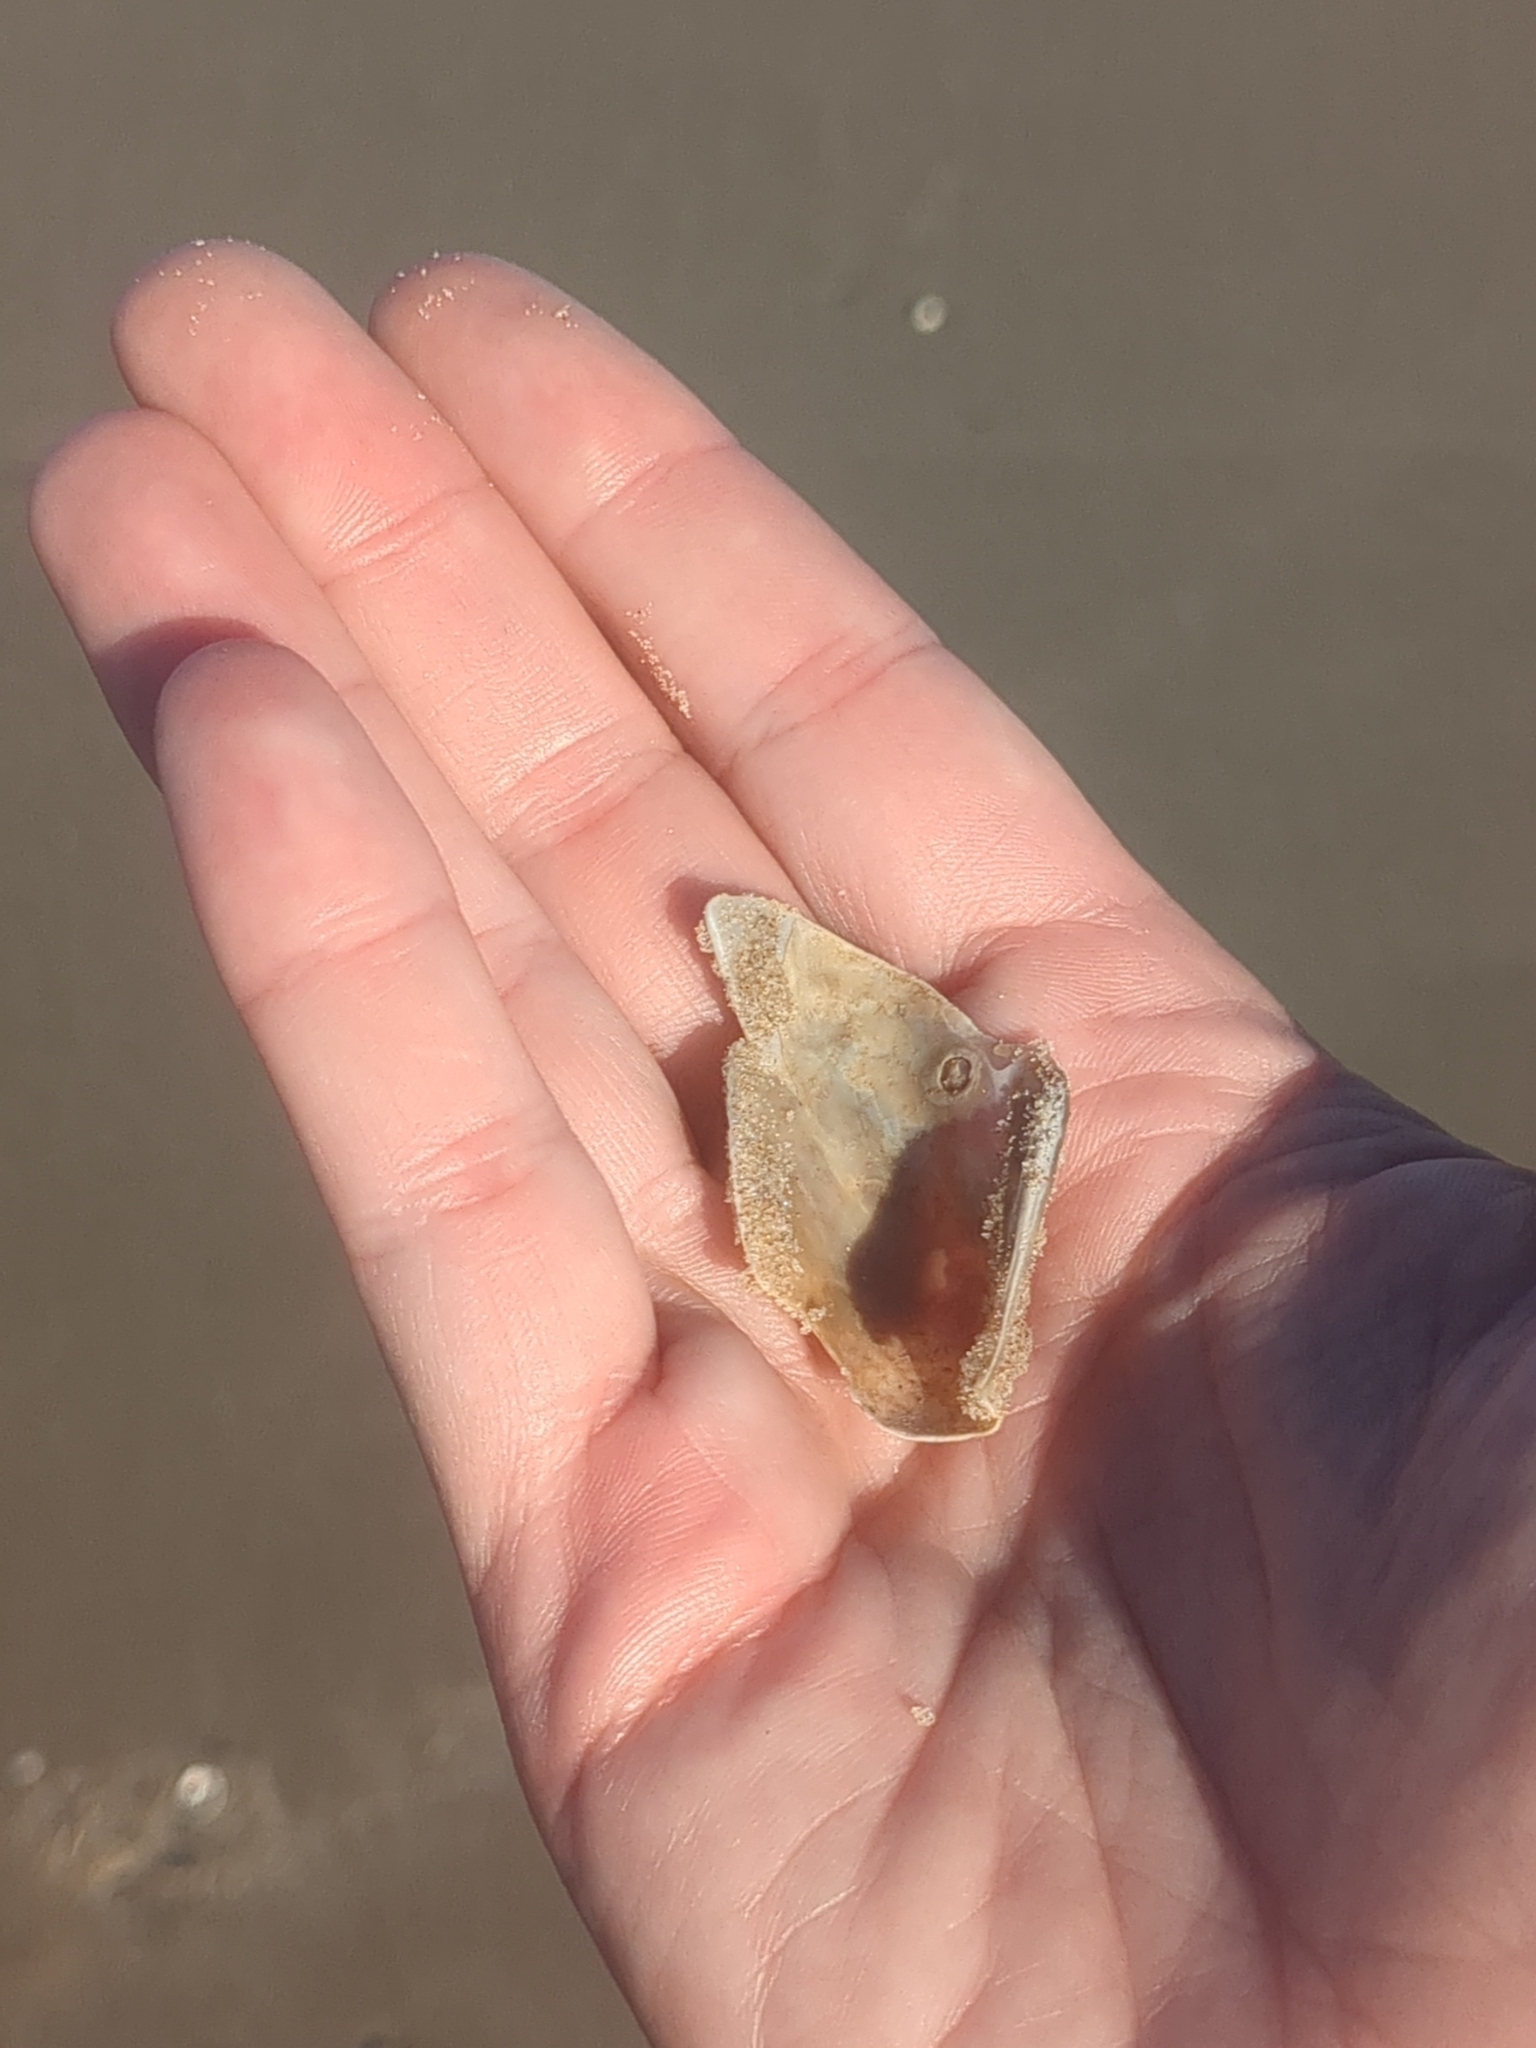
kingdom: Animalia
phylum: Mollusca
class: Bivalvia
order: Mytilida
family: Mytilidae
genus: Modiolus
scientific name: Modiolus americanus
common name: Tulip mussel
